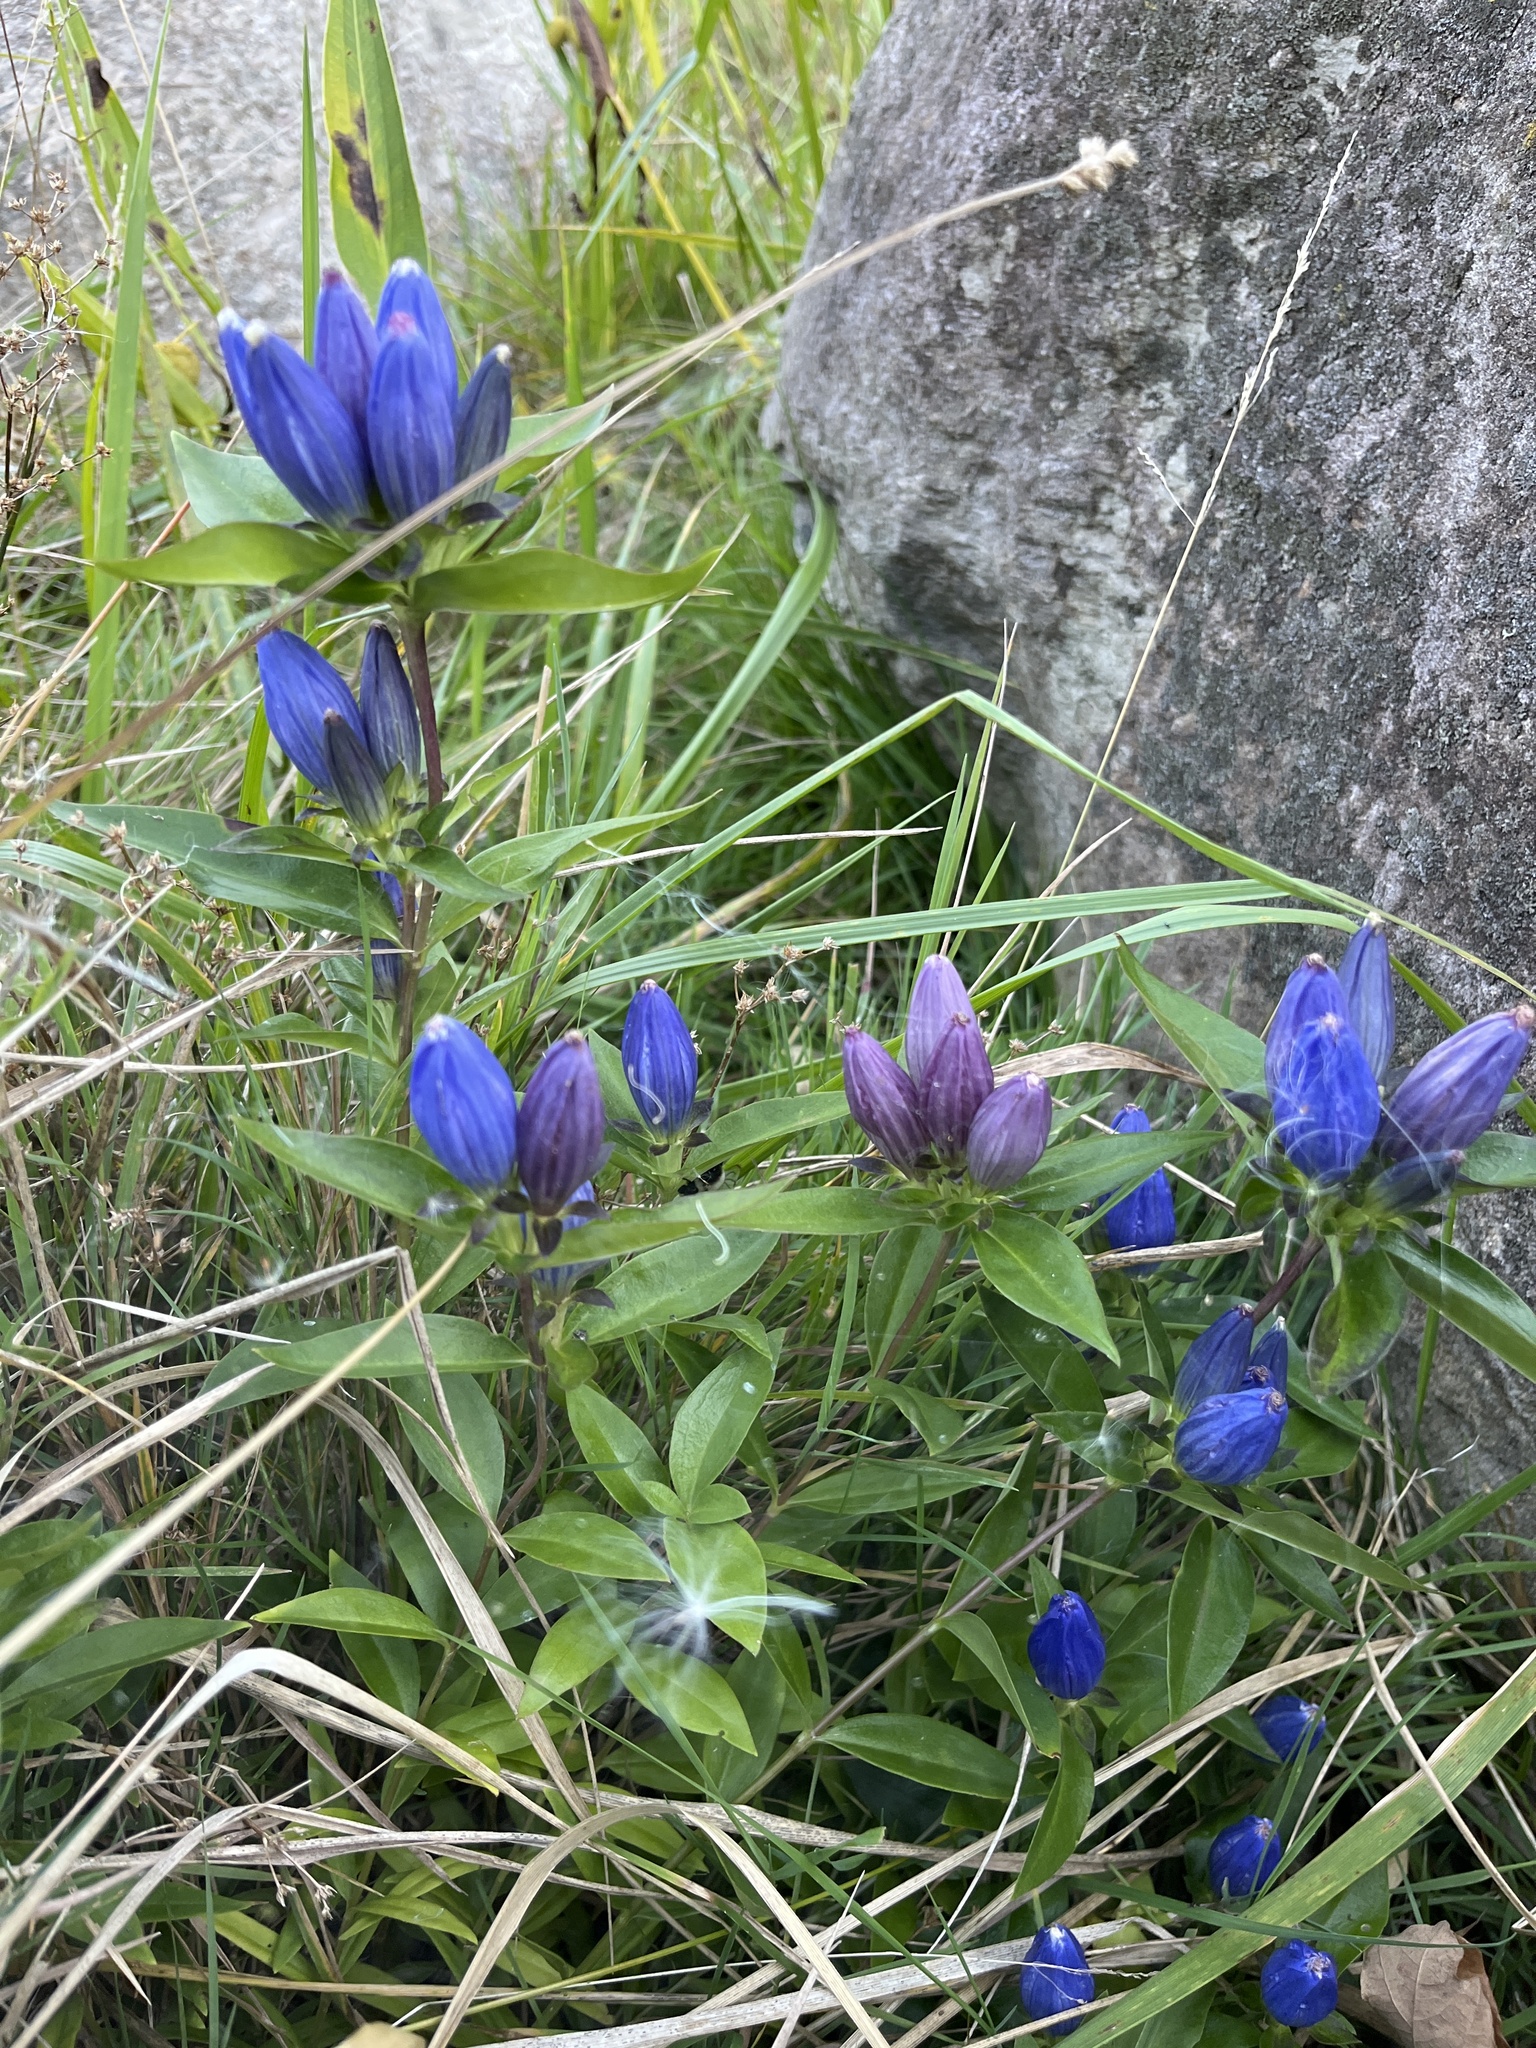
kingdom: Plantae
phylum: Tracheophyta
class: Magnoliopsida
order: Gentianales
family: Gentianaceae
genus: Gentiana
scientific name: Gentiana andrewsii
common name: Bottle gentian
